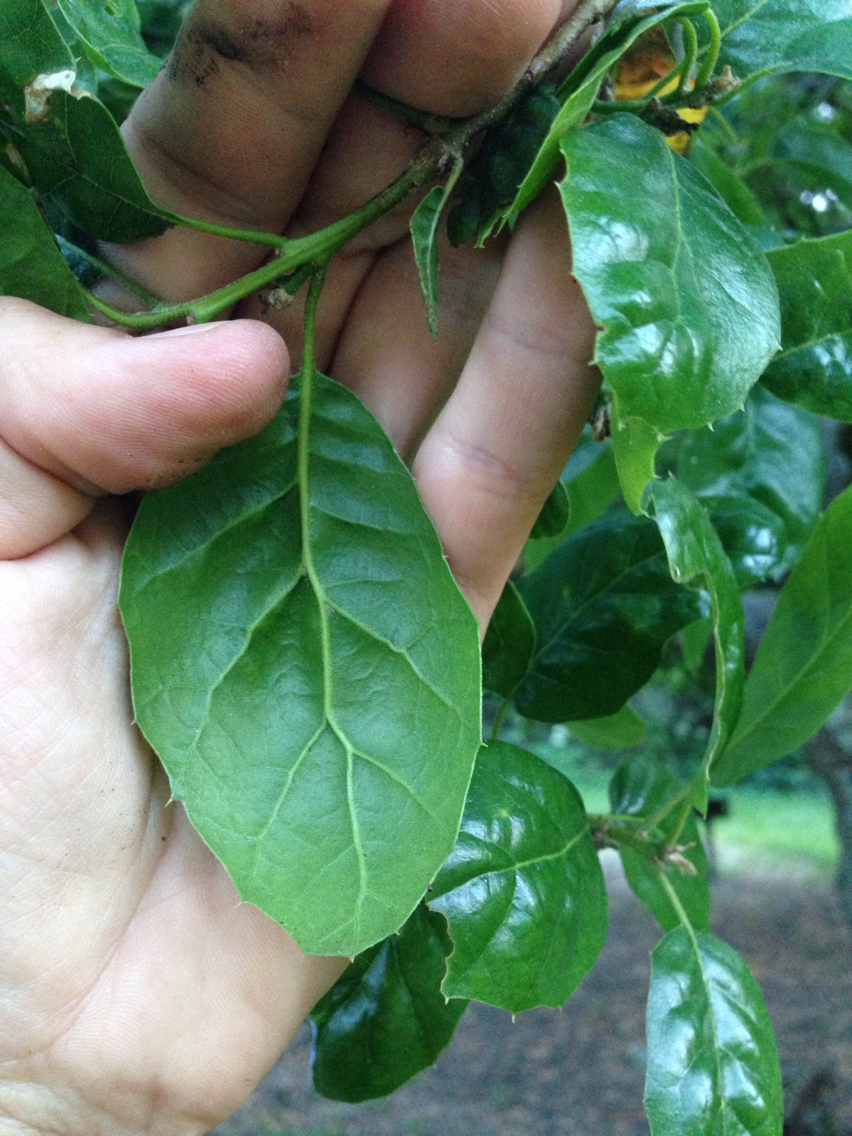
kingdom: Plantae
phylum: Tracheophyta
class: Magnoliopsida
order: Fagales
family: Fagaceae
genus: Quercus
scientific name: Quercus agrifolia
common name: California live oak
